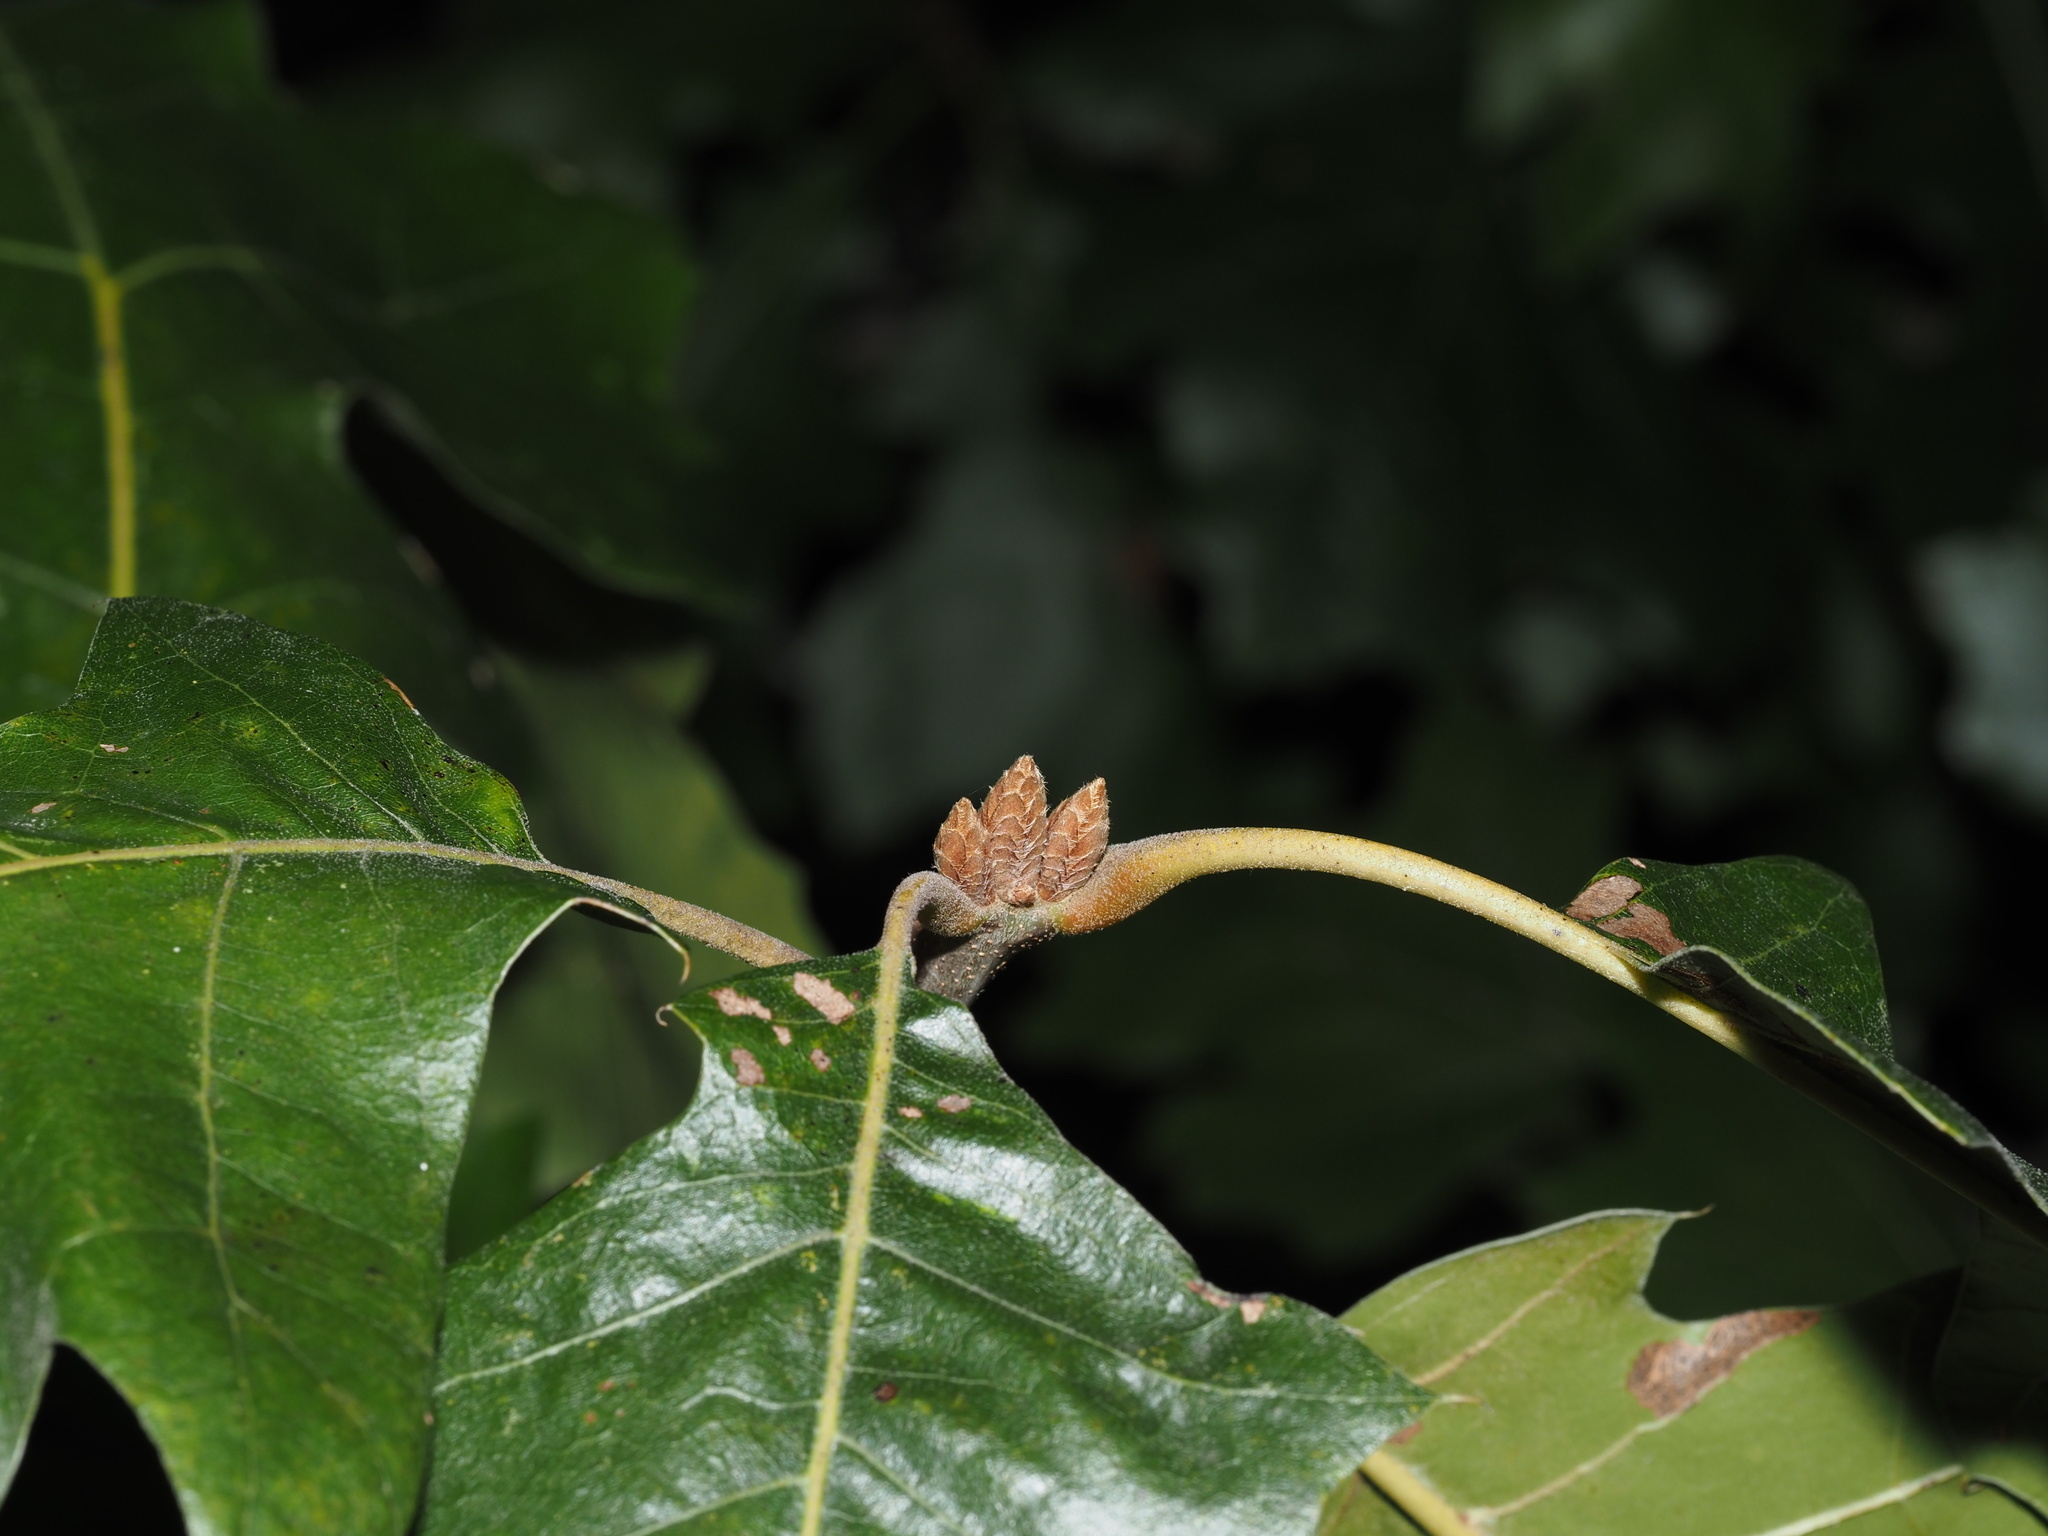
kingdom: Plantae
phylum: Tracheophyta
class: Magnoliopsida
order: Fagales
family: Fagaceae
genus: Quercus
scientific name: Quercus velutina
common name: Black oak
